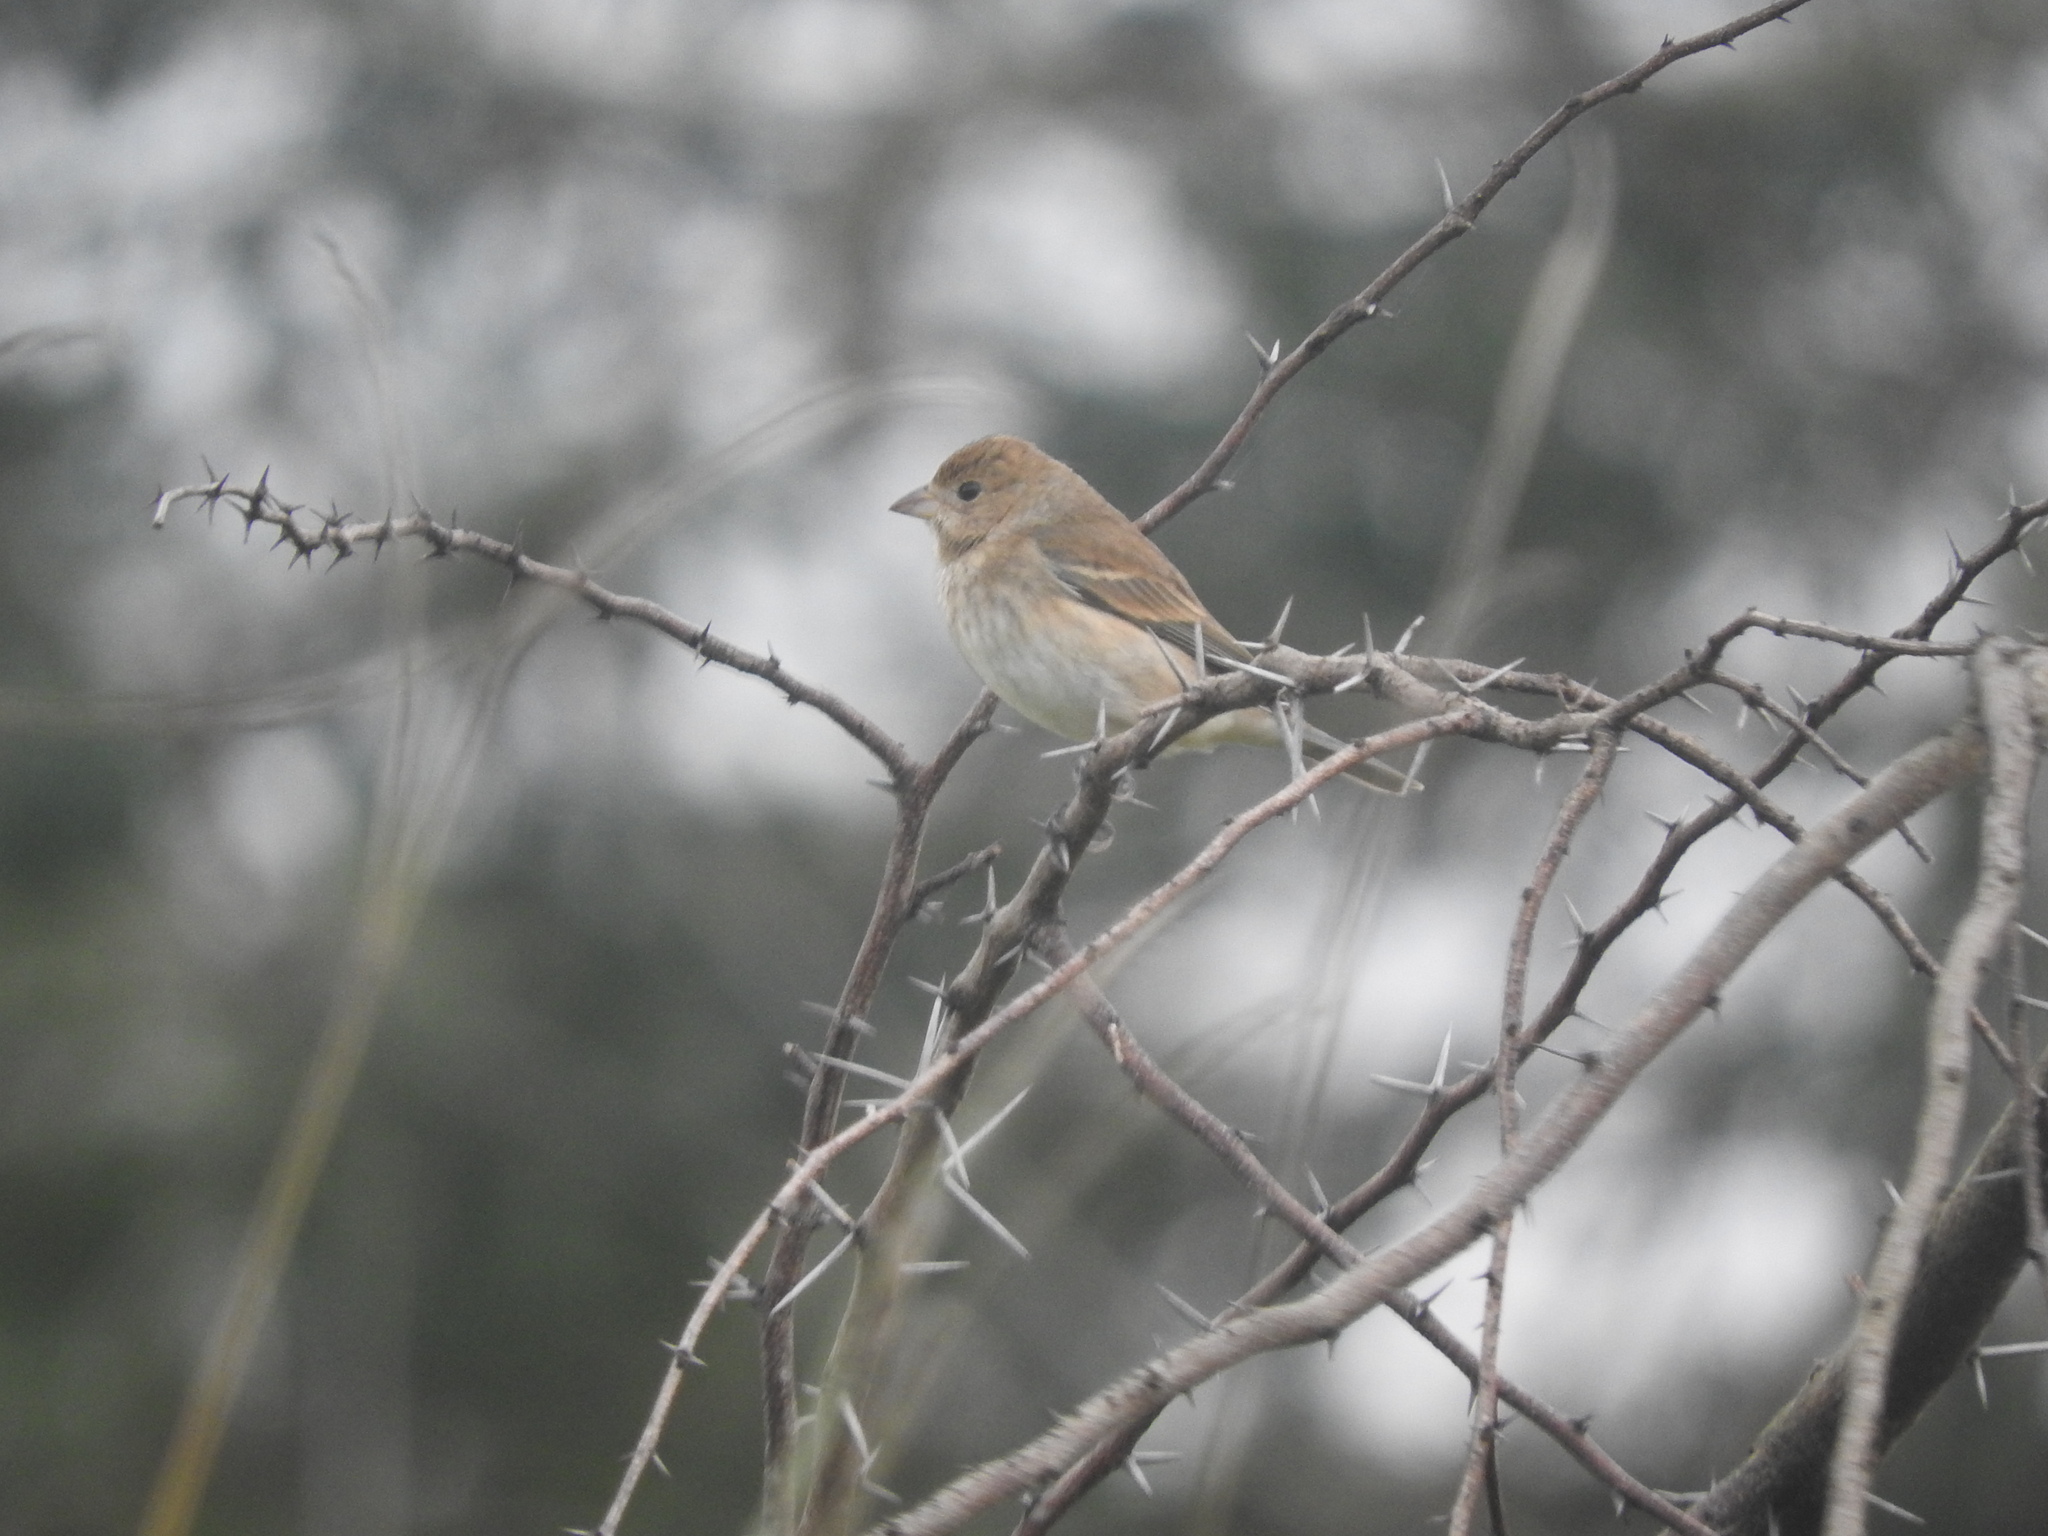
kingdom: Animalia
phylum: Chordata
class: Aves
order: Passeriformes
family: Cardinalidae
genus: Passerina
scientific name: Passerina cyanea
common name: Indigo bunting
